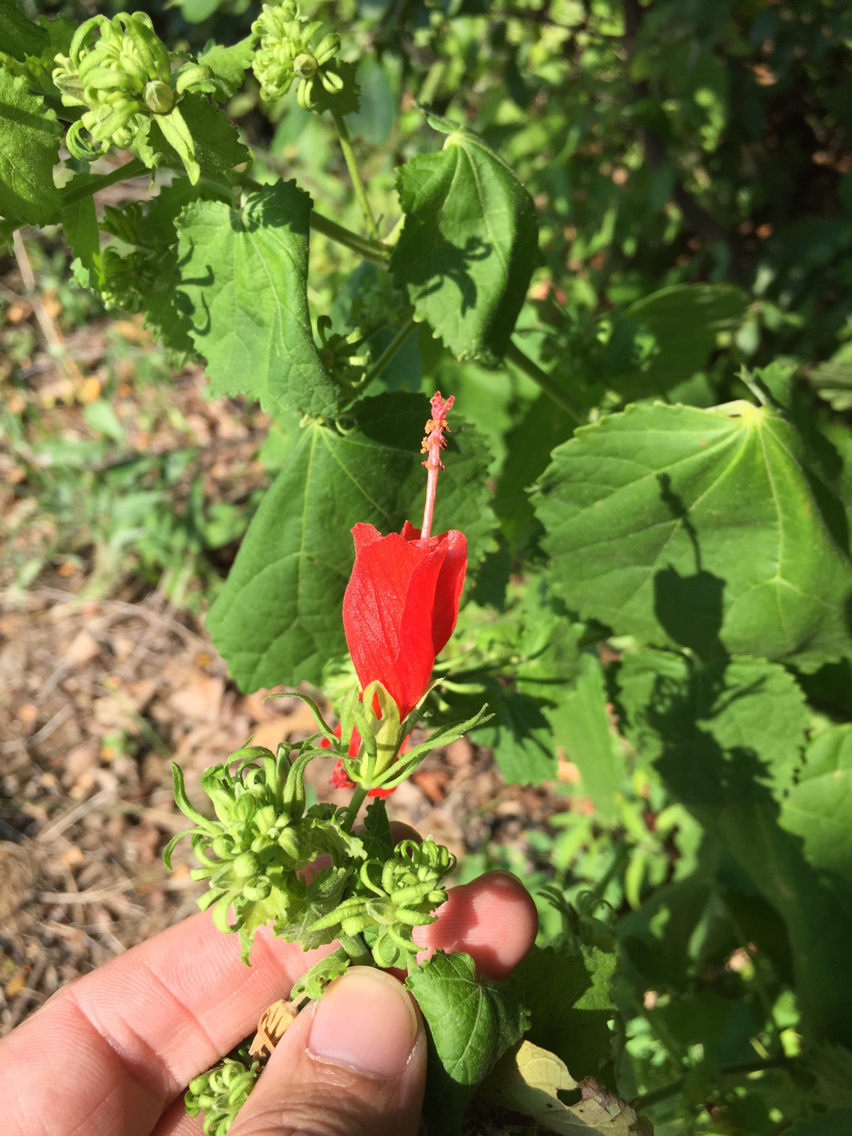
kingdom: Plantae
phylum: Tracheophyta
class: Magnoliopsida
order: Malvales
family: Malvaceae
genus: Malvaviscus
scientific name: Malvaviscus arboreus
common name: Wax mallow
